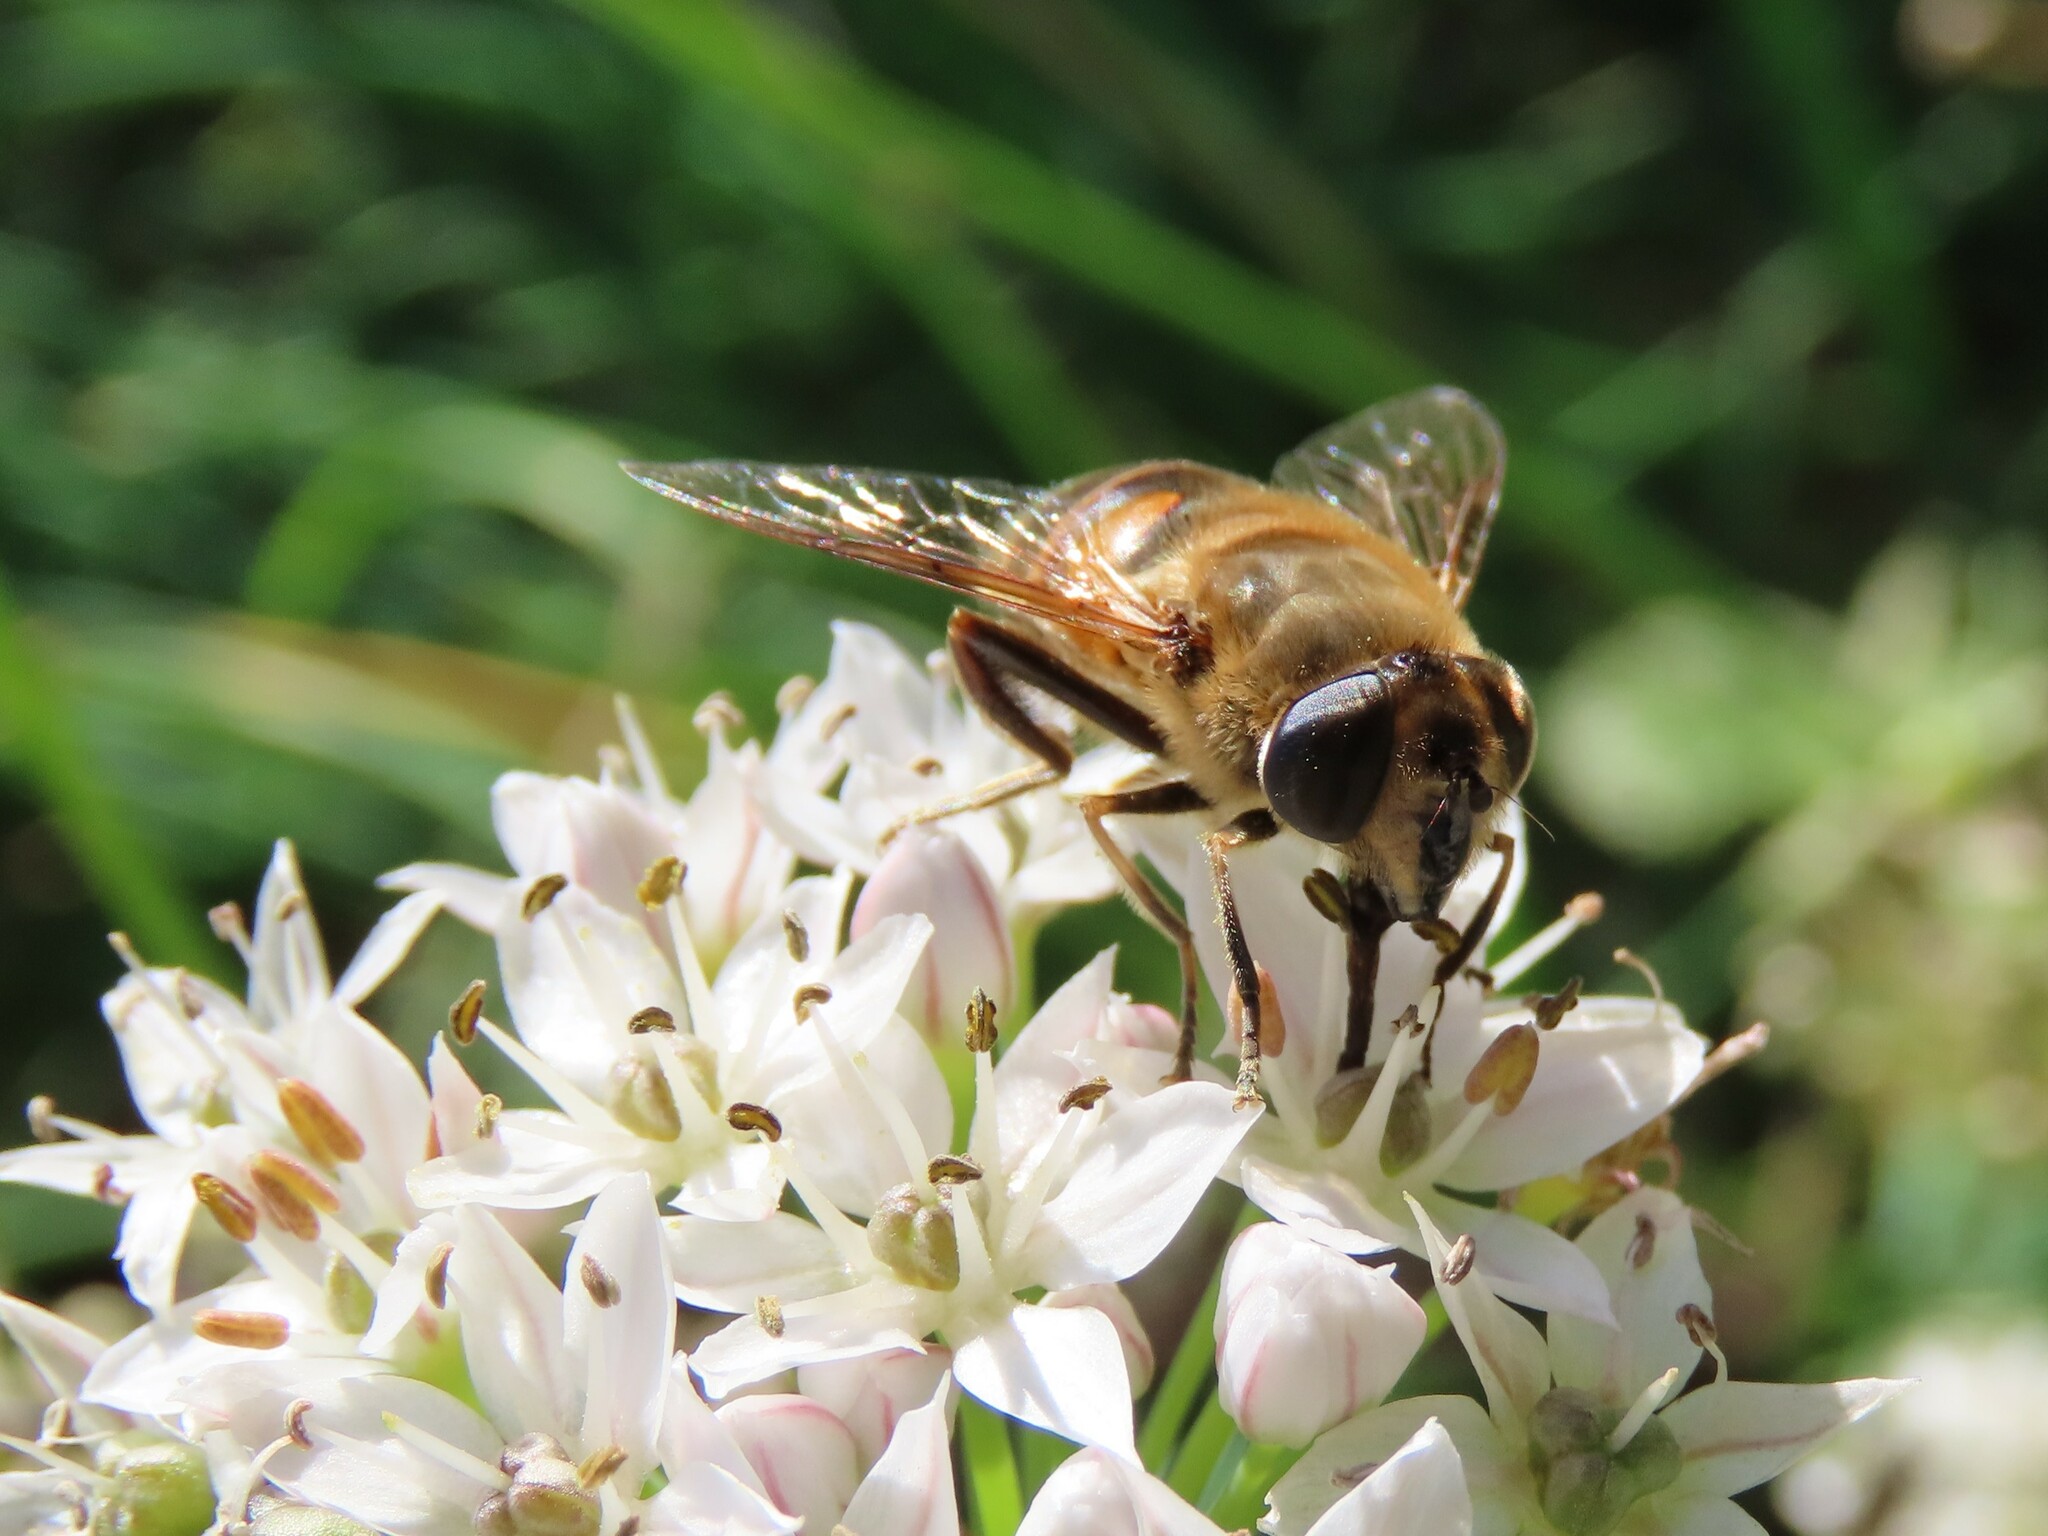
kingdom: Animalia
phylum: Arthropoda
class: Insecta
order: Diptera
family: Syrphidae
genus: Eristalis
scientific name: Eristalis tenax
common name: Drone fly
